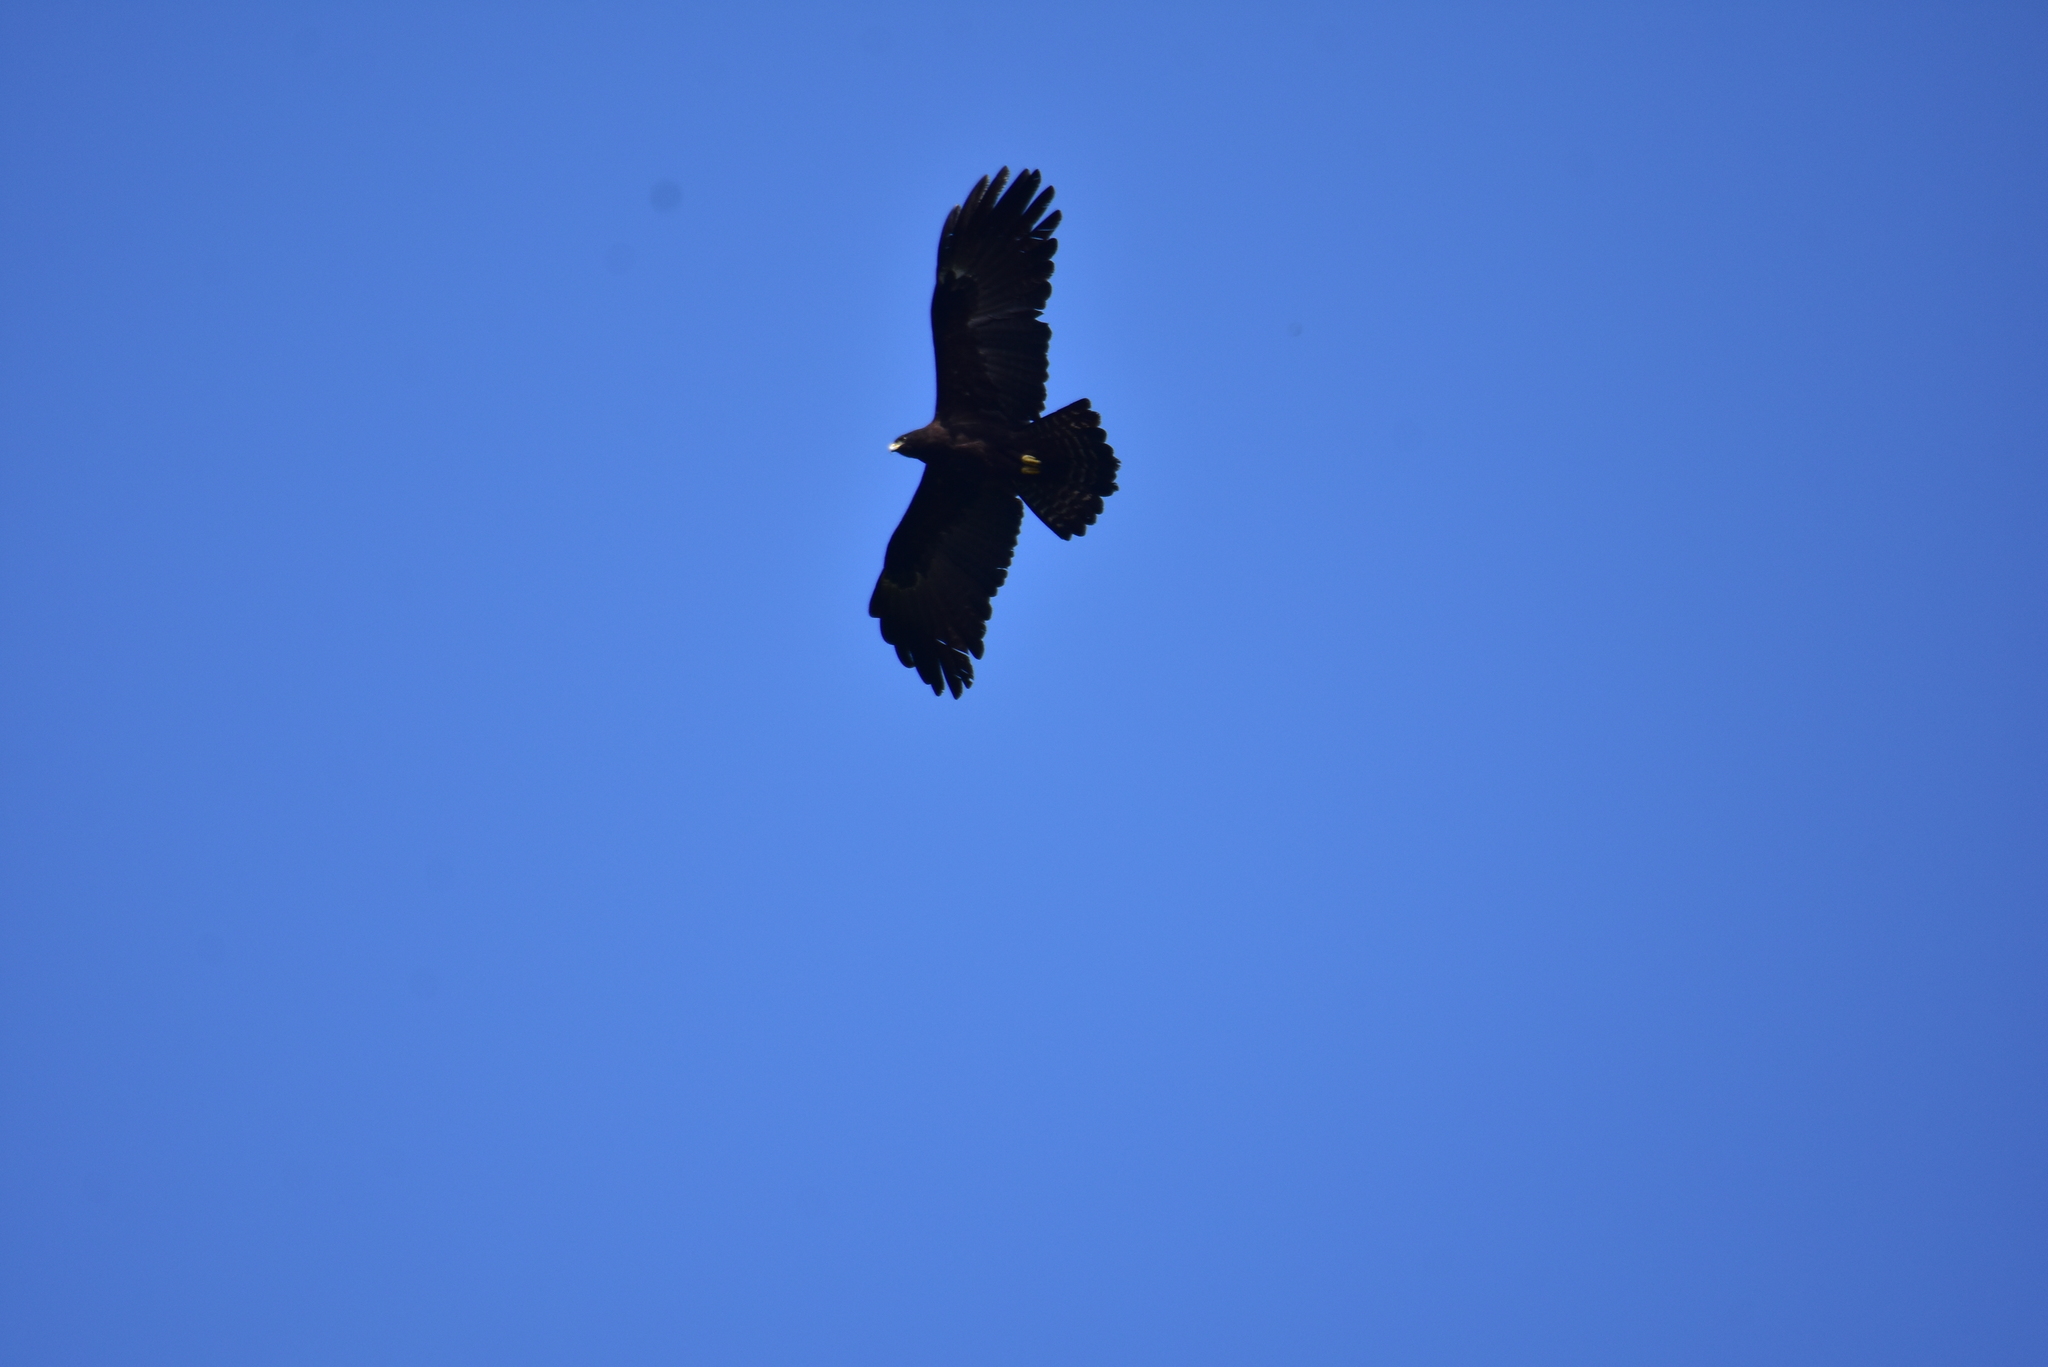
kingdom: Animalia
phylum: Chordata
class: Aves
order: Accipitriformes
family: Accipitridae
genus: Ictinaetus
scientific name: Ictinaetus malayensis
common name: Black eagle
